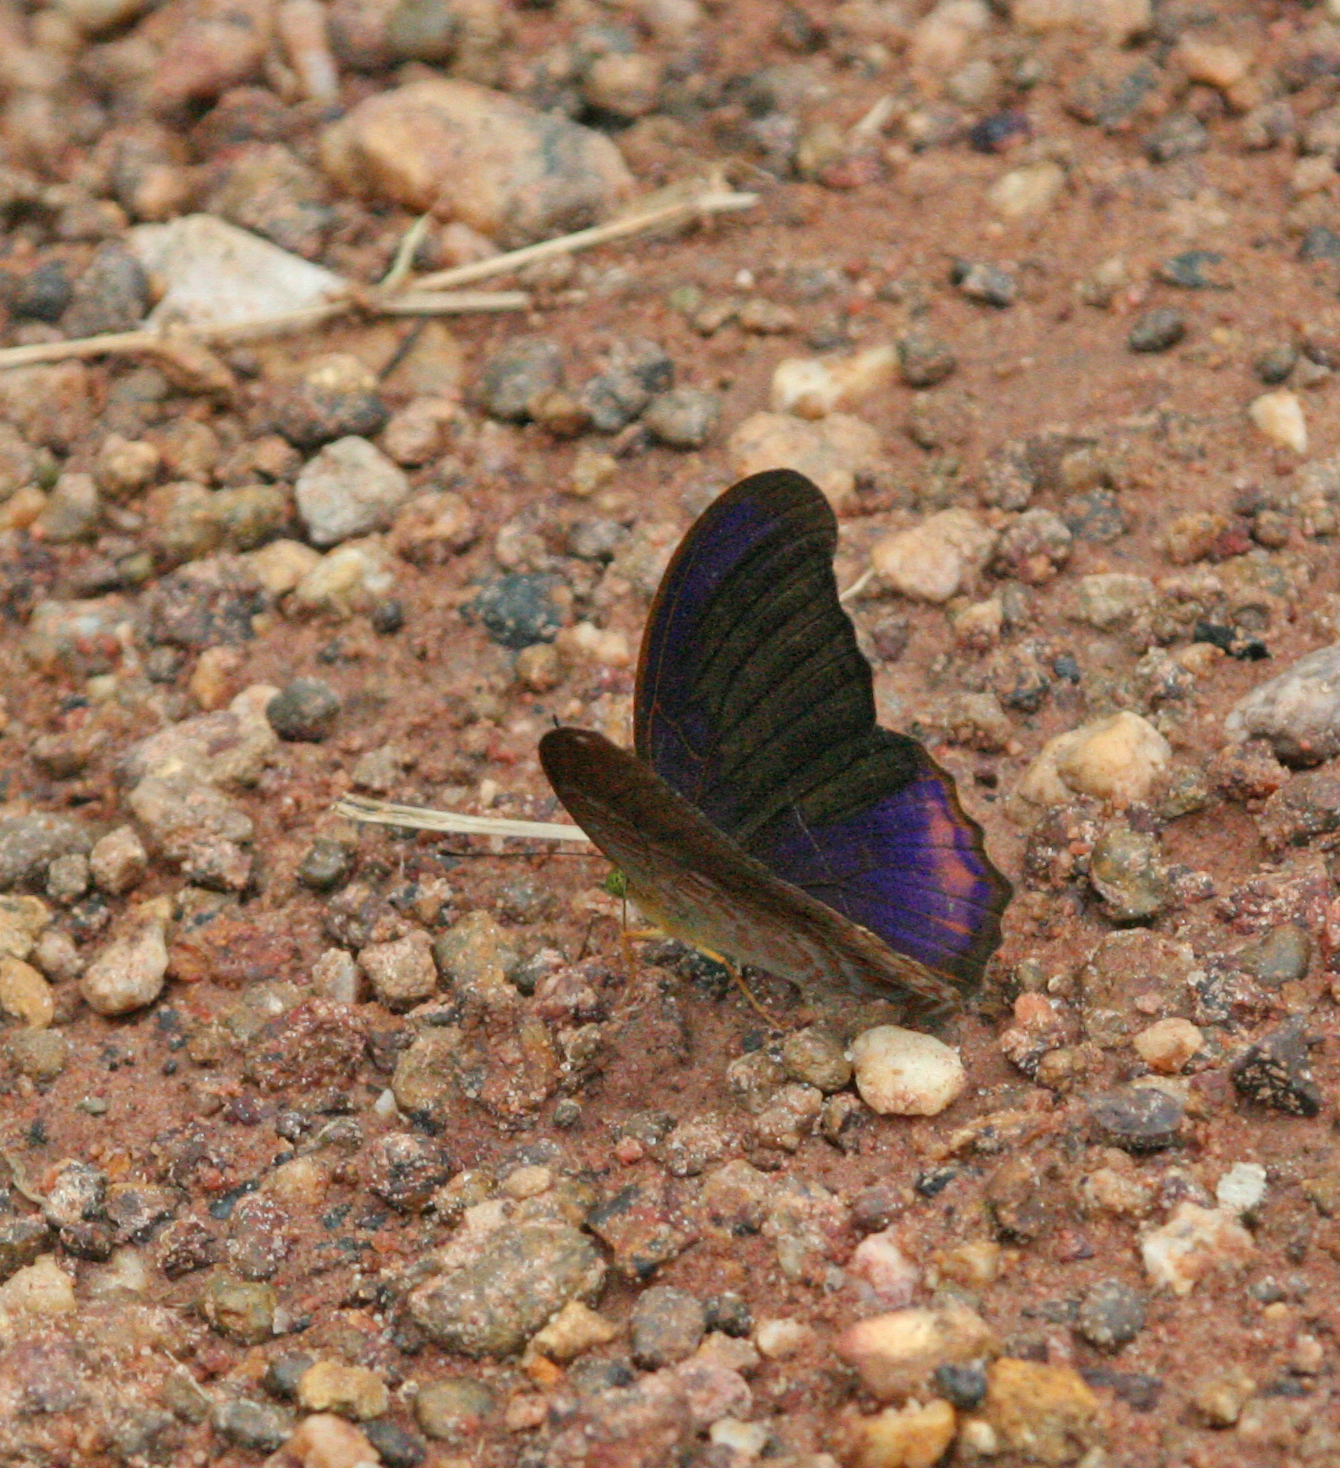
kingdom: Animalia
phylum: Arthropoda
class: Insecta
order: Lepidoptera
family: Nymphalidae
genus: Terinos
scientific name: Terinos terpander
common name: Royal assyrian
